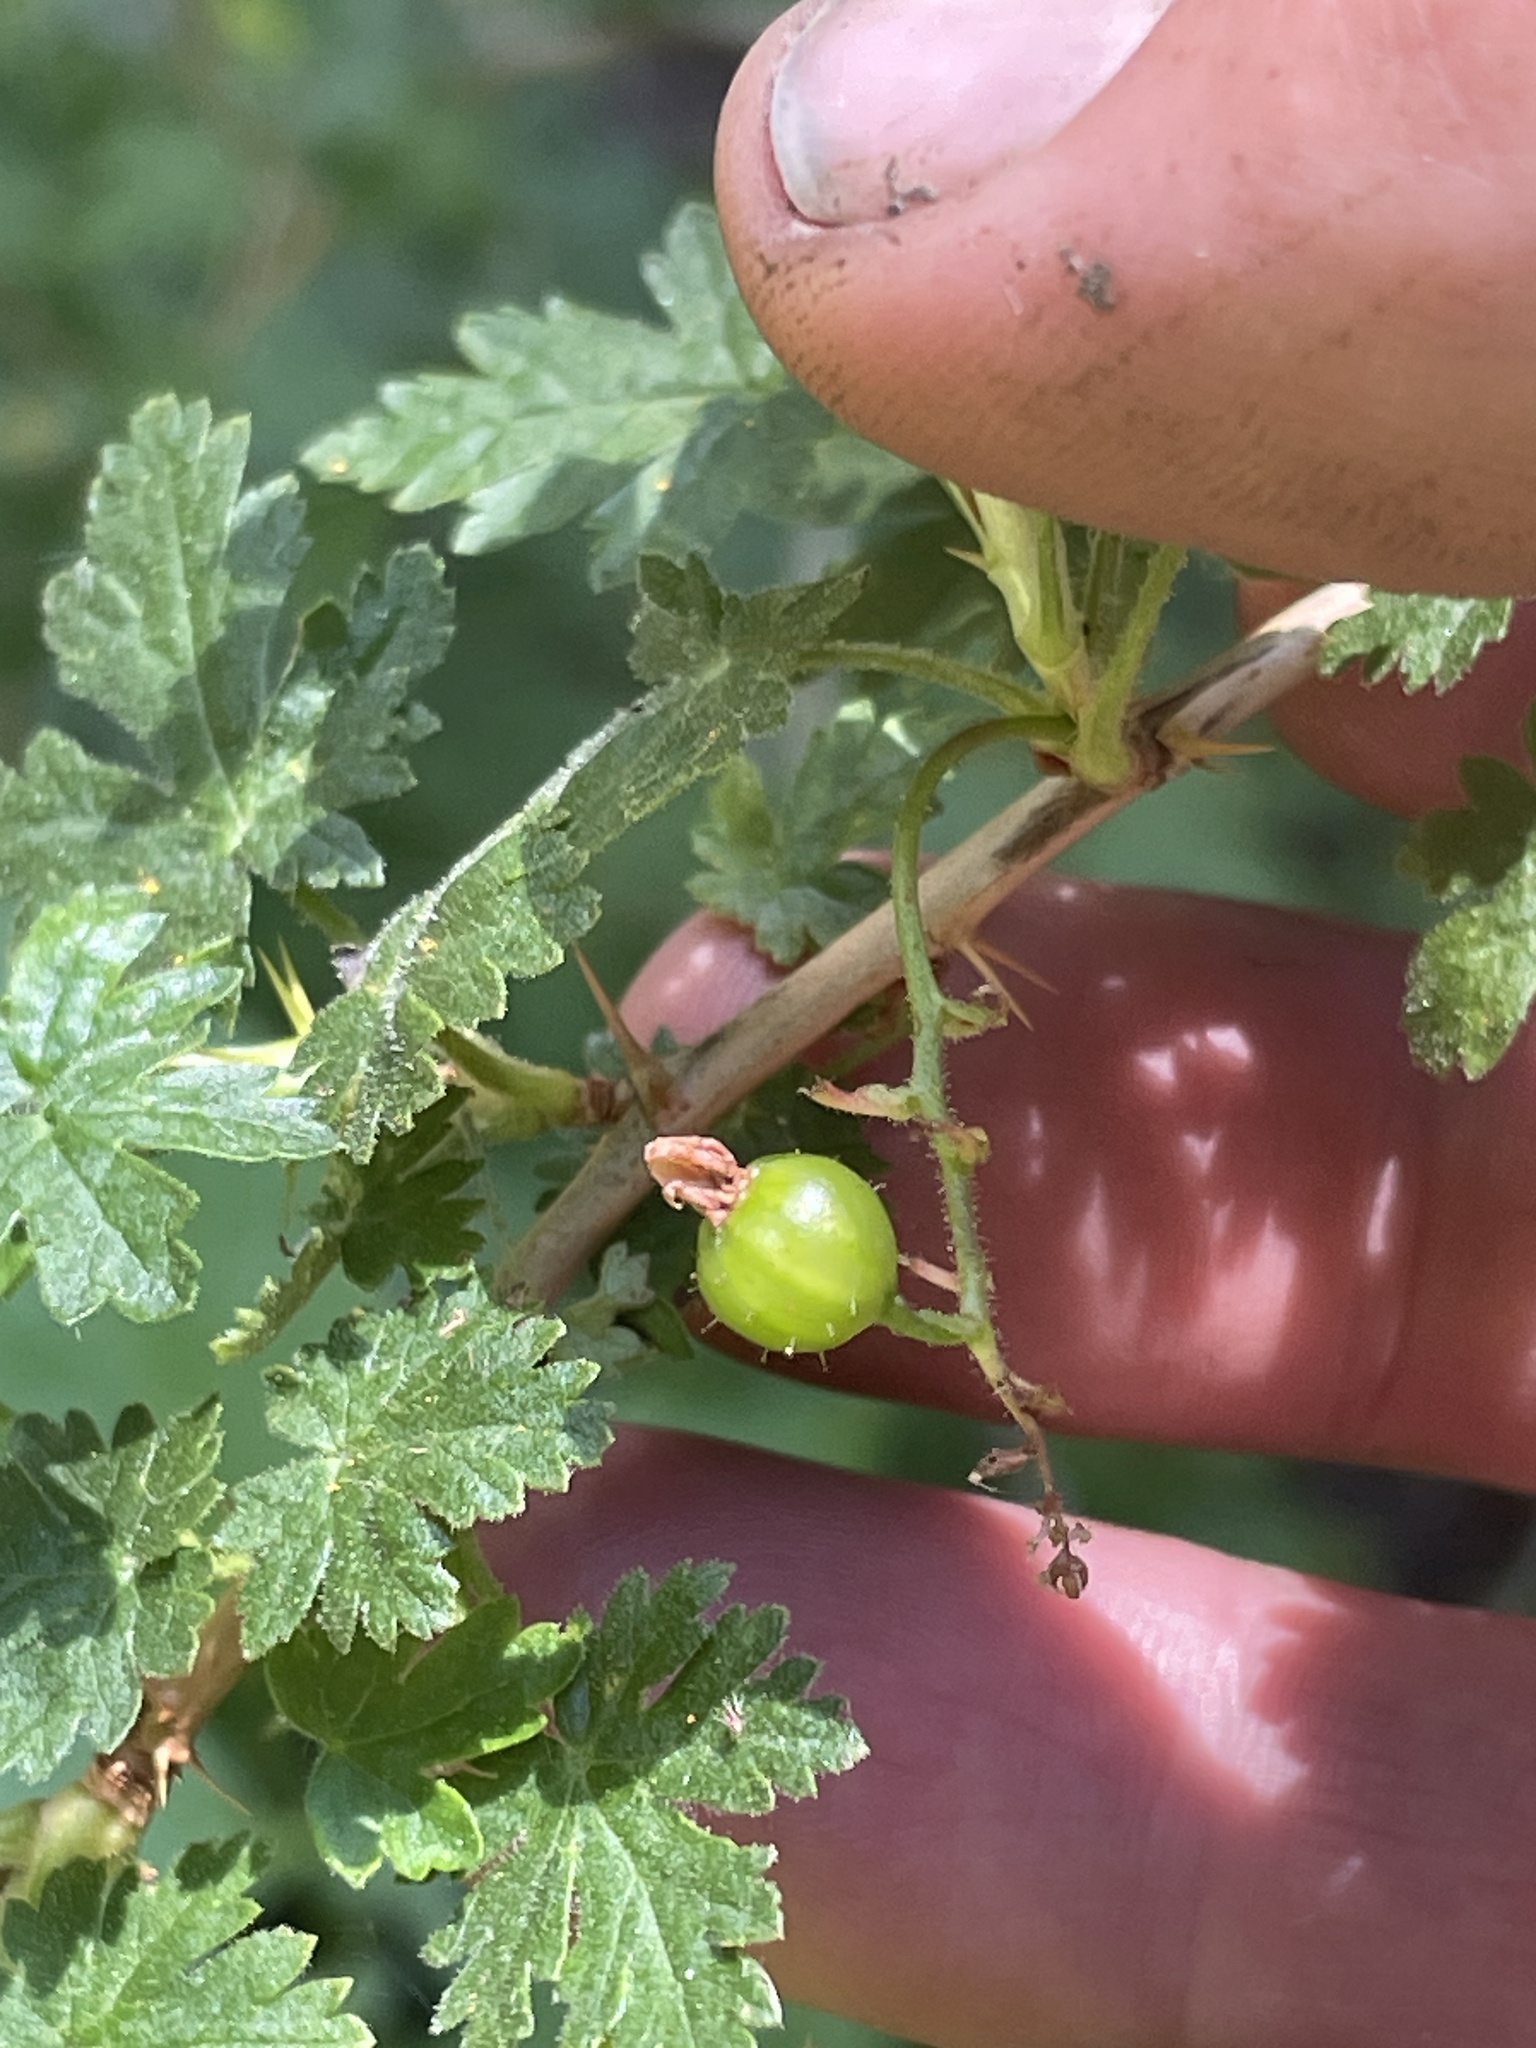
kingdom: Plantae
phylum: Tracheophyta
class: Magnoliopsida
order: Saxifragales
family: Grossulariaceae
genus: Ribes
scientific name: Ribes montigenum
